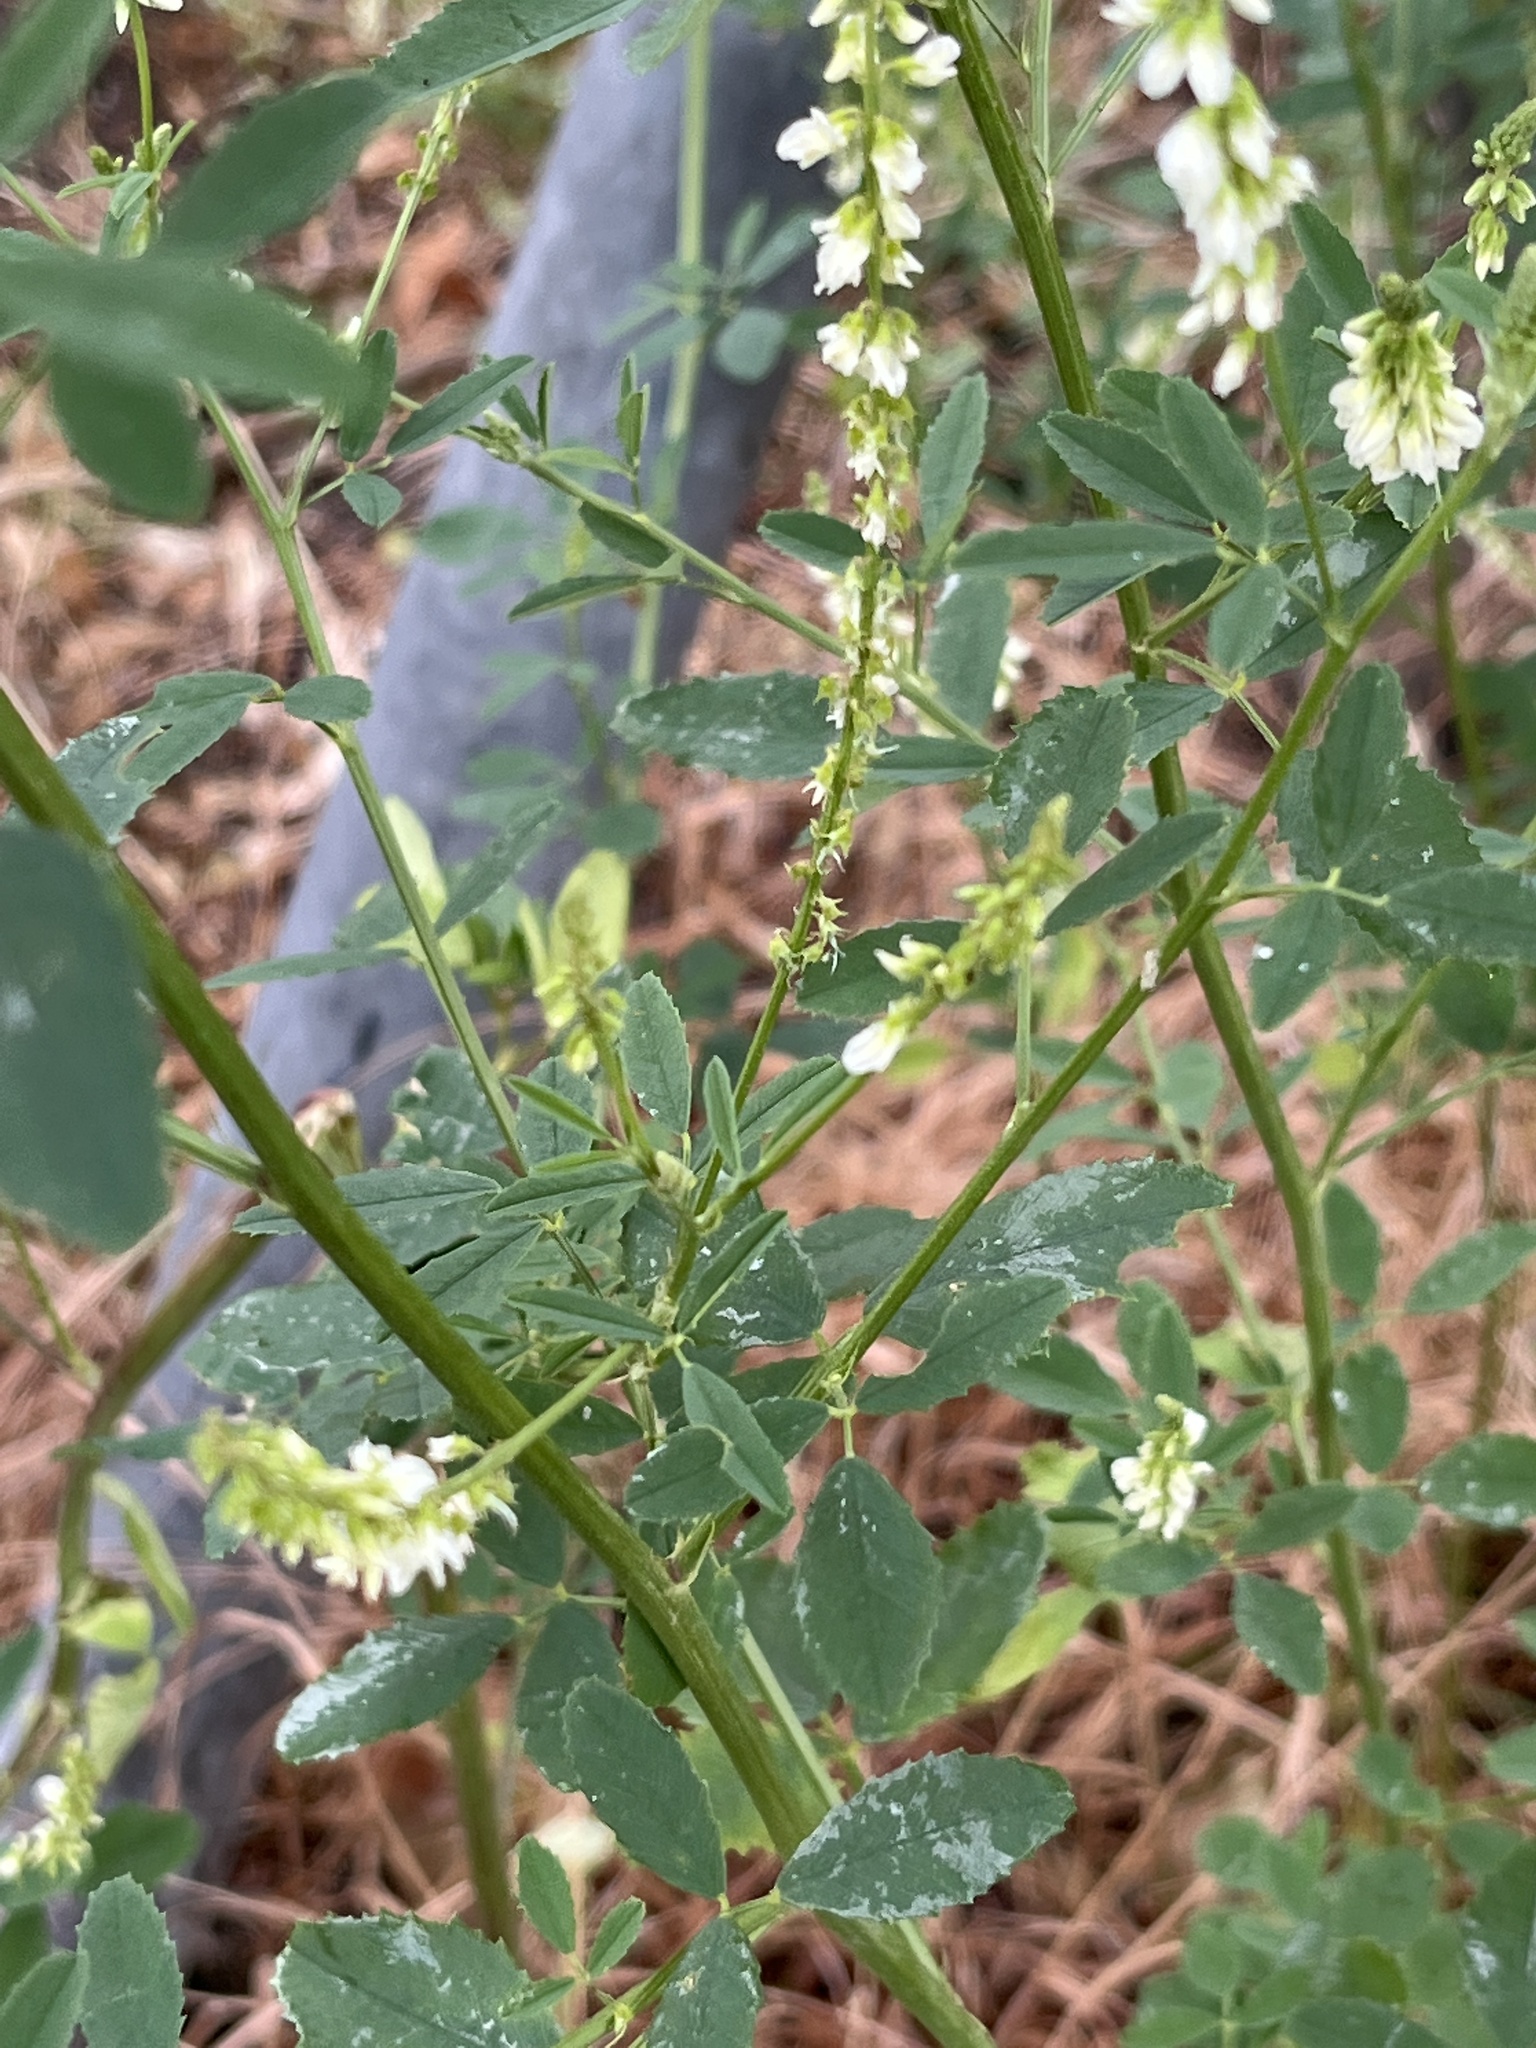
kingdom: Plantae
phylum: Tracheophyta
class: Magnoliopsida
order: Fabales
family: Fabaceae
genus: Melilotus
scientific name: Melilotus albus
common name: White melilot
